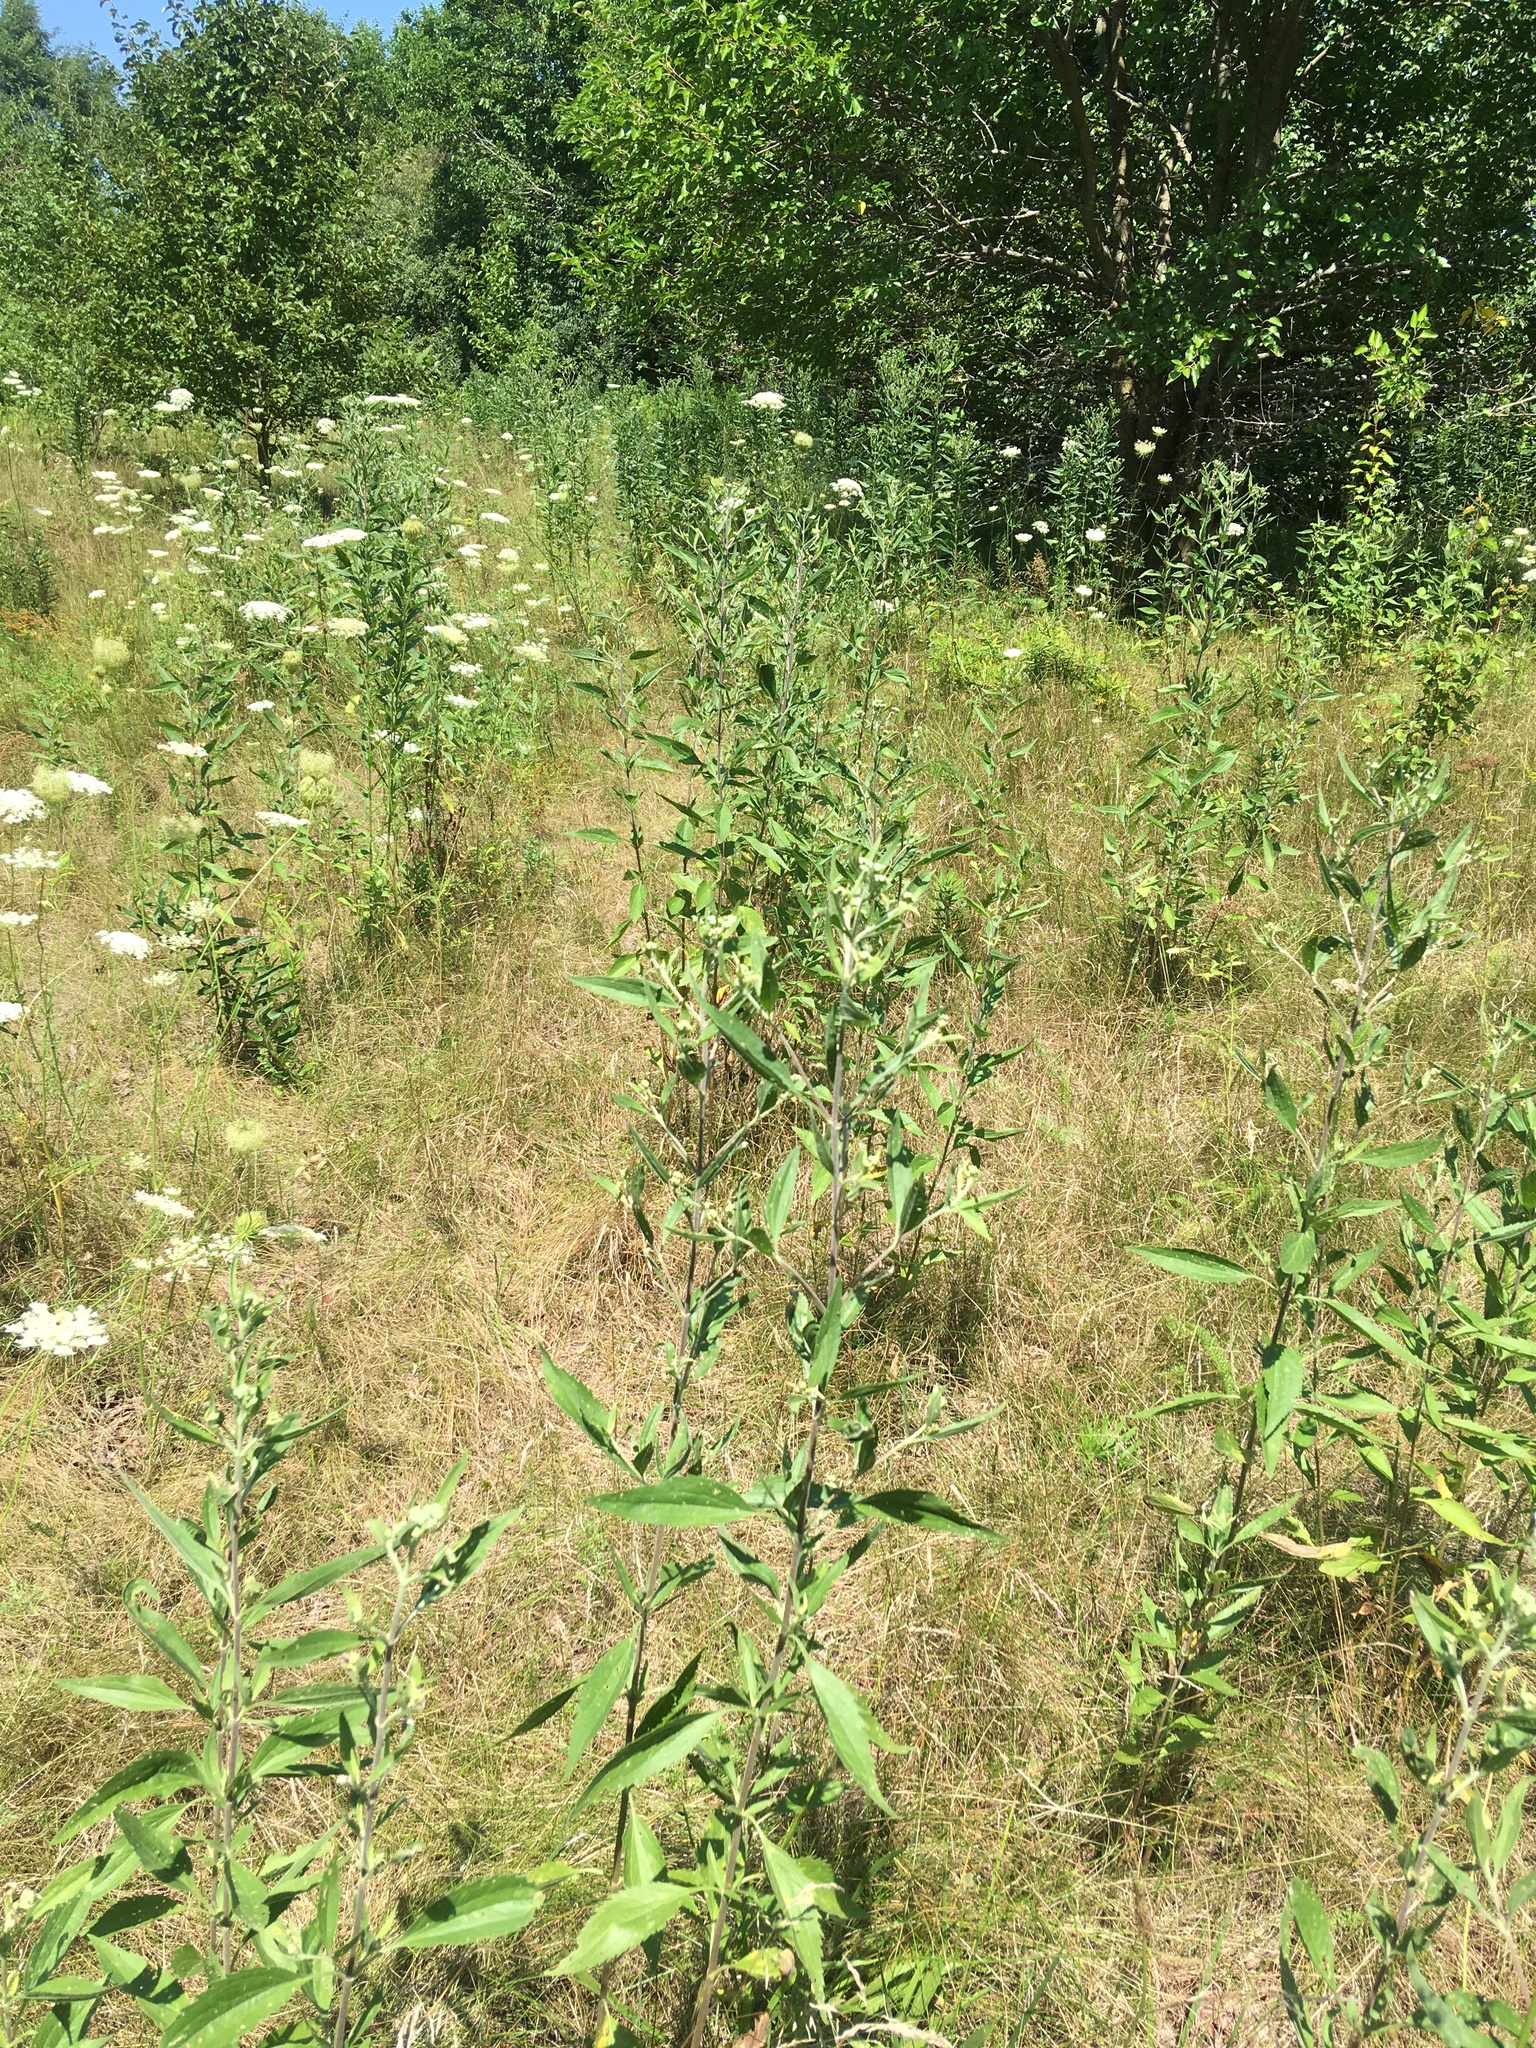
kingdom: Plantae
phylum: Tracheophyta
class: Magnoliopsida
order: Asterales
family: Asteraceae
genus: Eupatorium
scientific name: Eupatorium serotinum
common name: Late boneset
